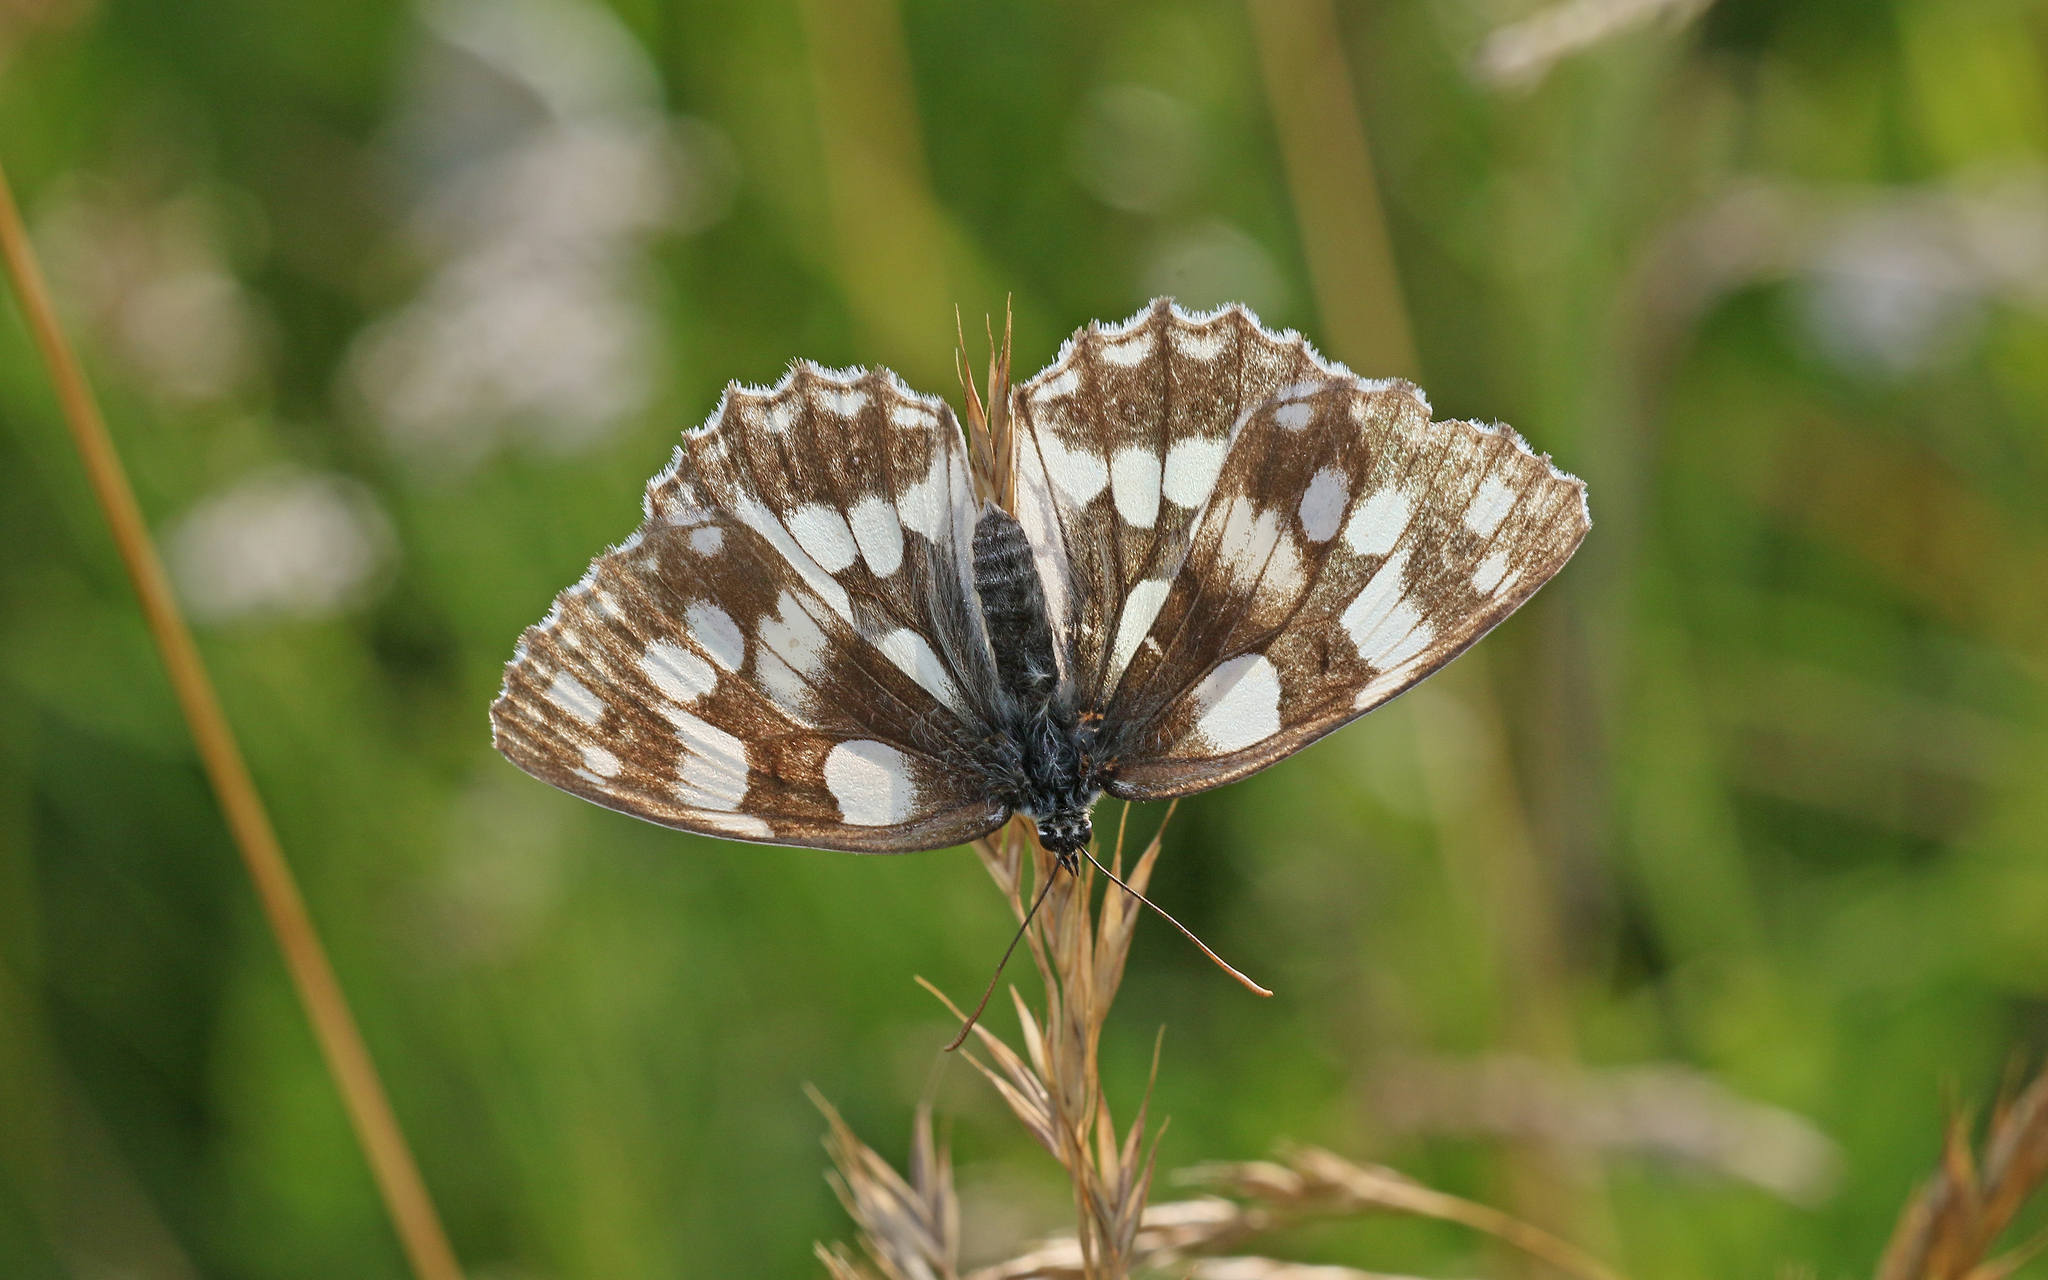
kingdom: Animalia
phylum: Arthropoda
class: Insecta
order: Lepidoptera
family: Nymphalidae
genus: Melanargia
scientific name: Melanargia galathea
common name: Marbled white
